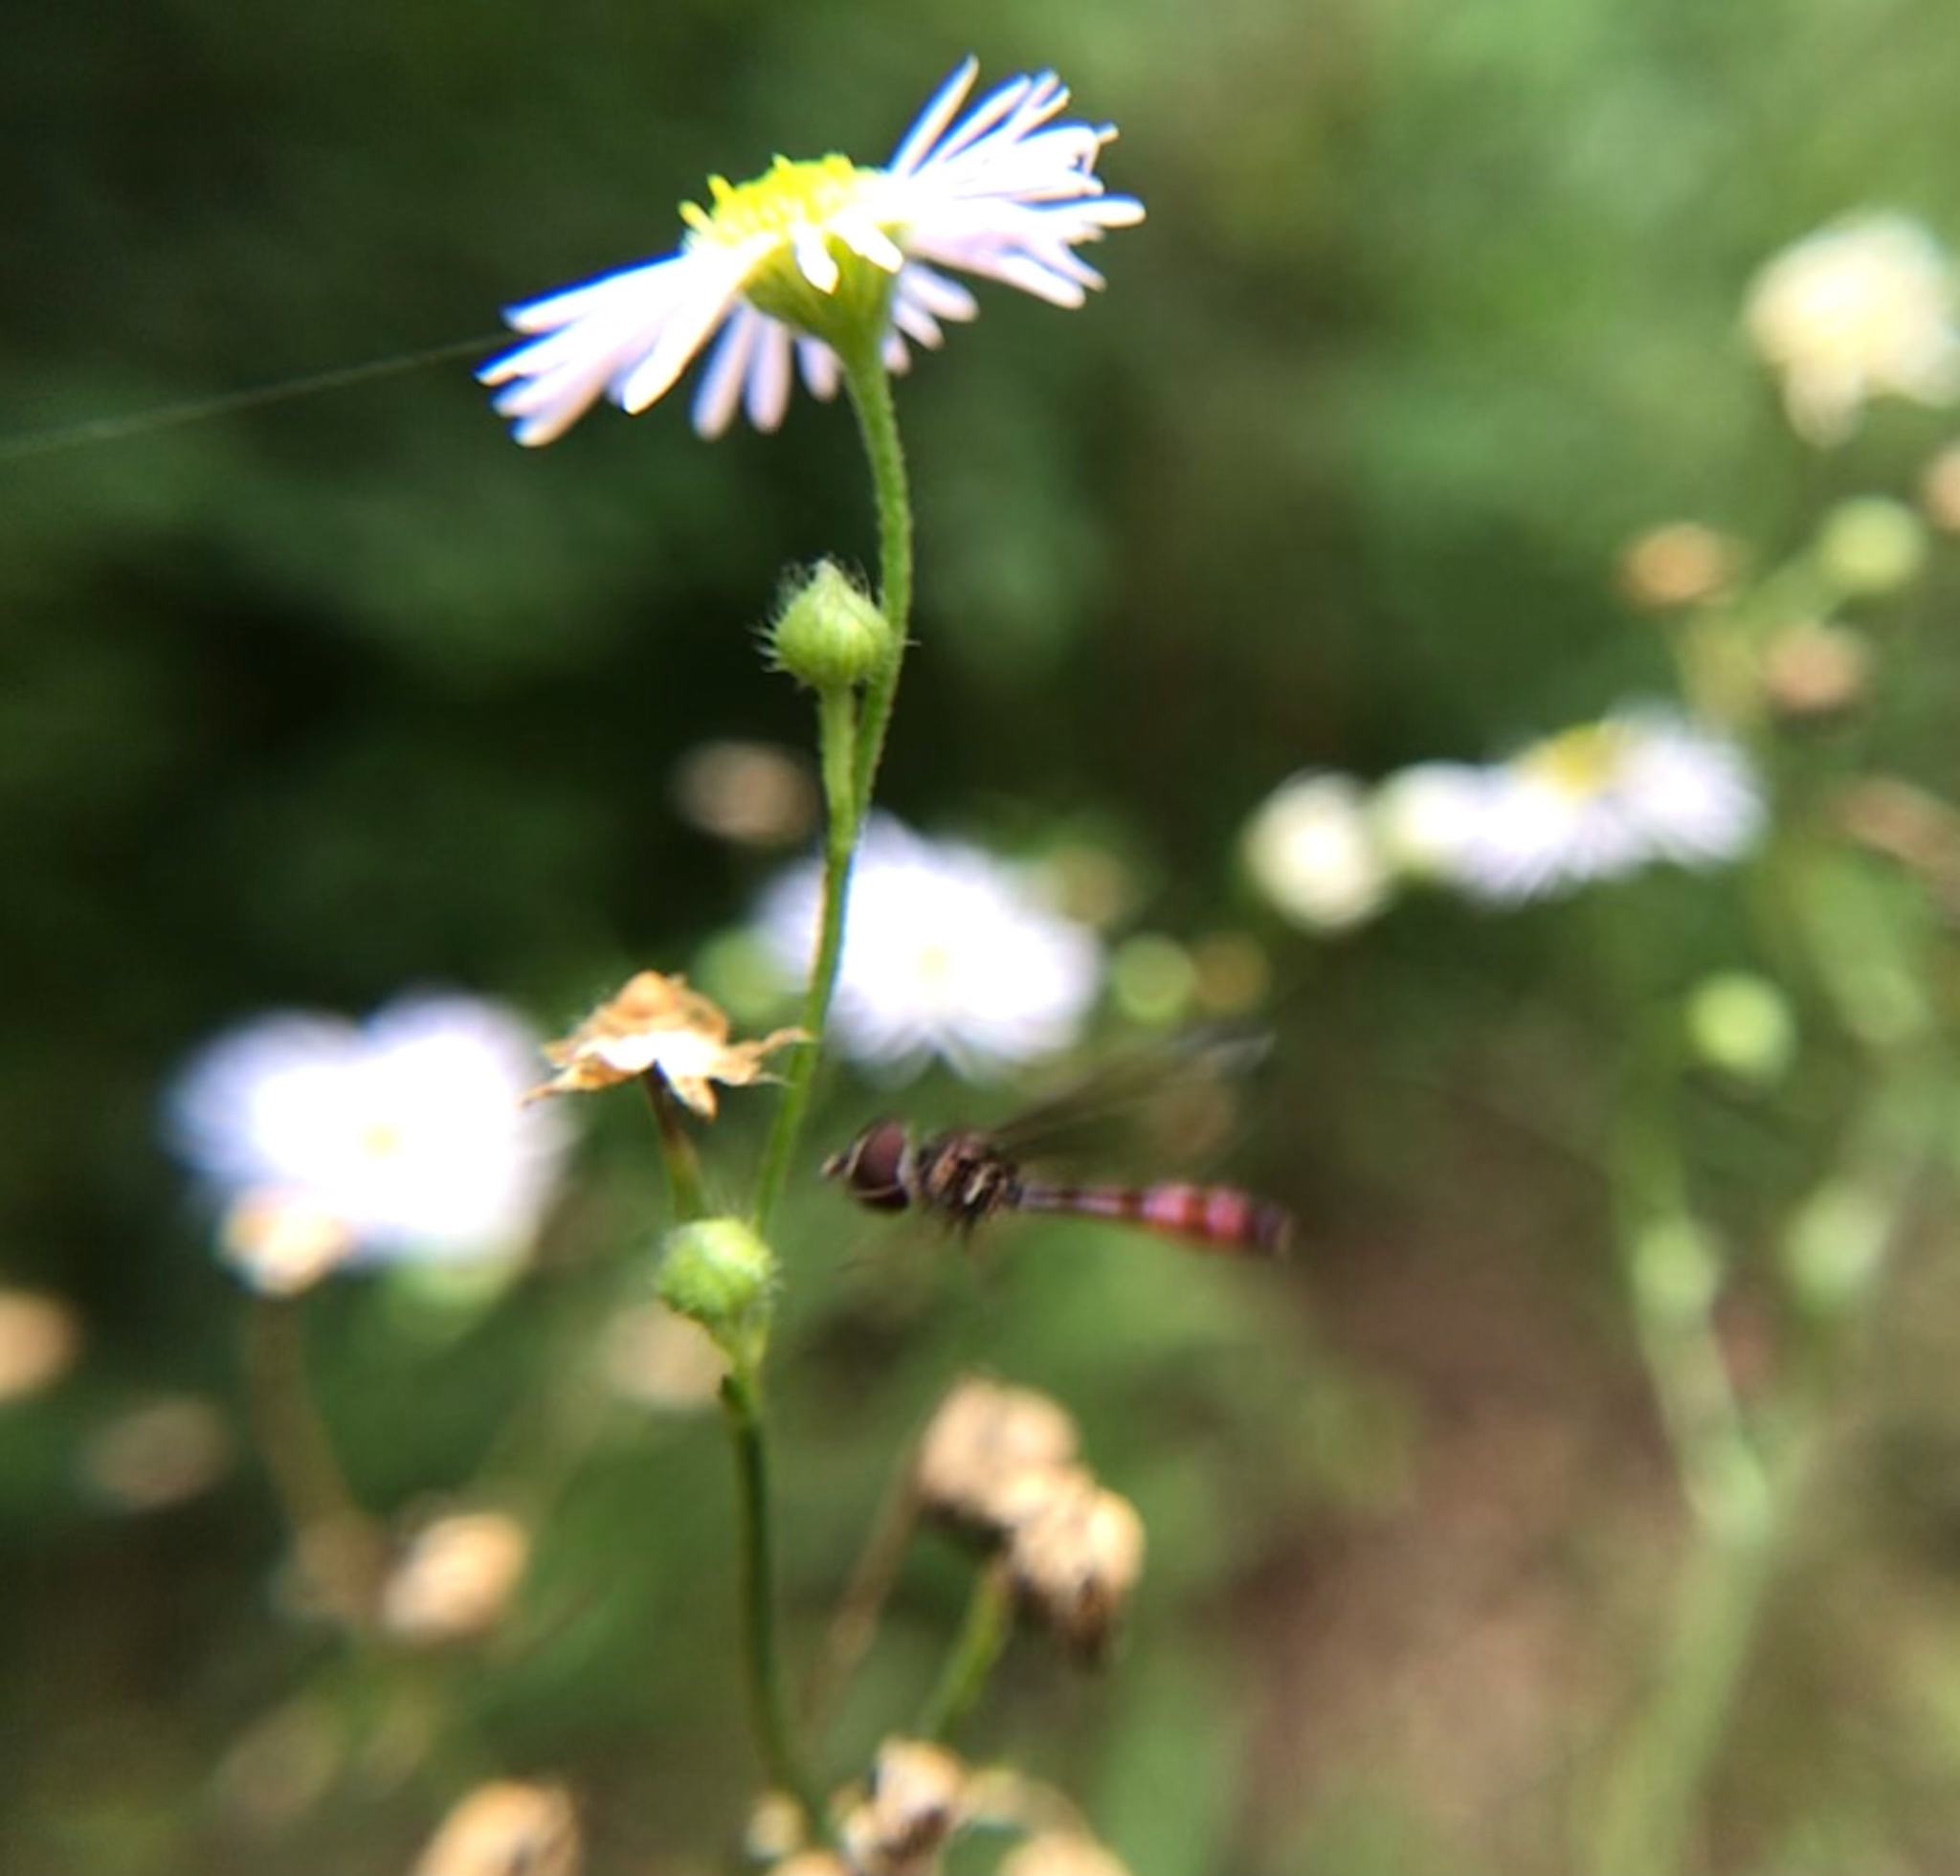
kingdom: Animalia
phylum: Arthropoda
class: Insecta
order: Diptera
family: Syrphidae
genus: Ocyptamus
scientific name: Ocyptamus fuscipennis
